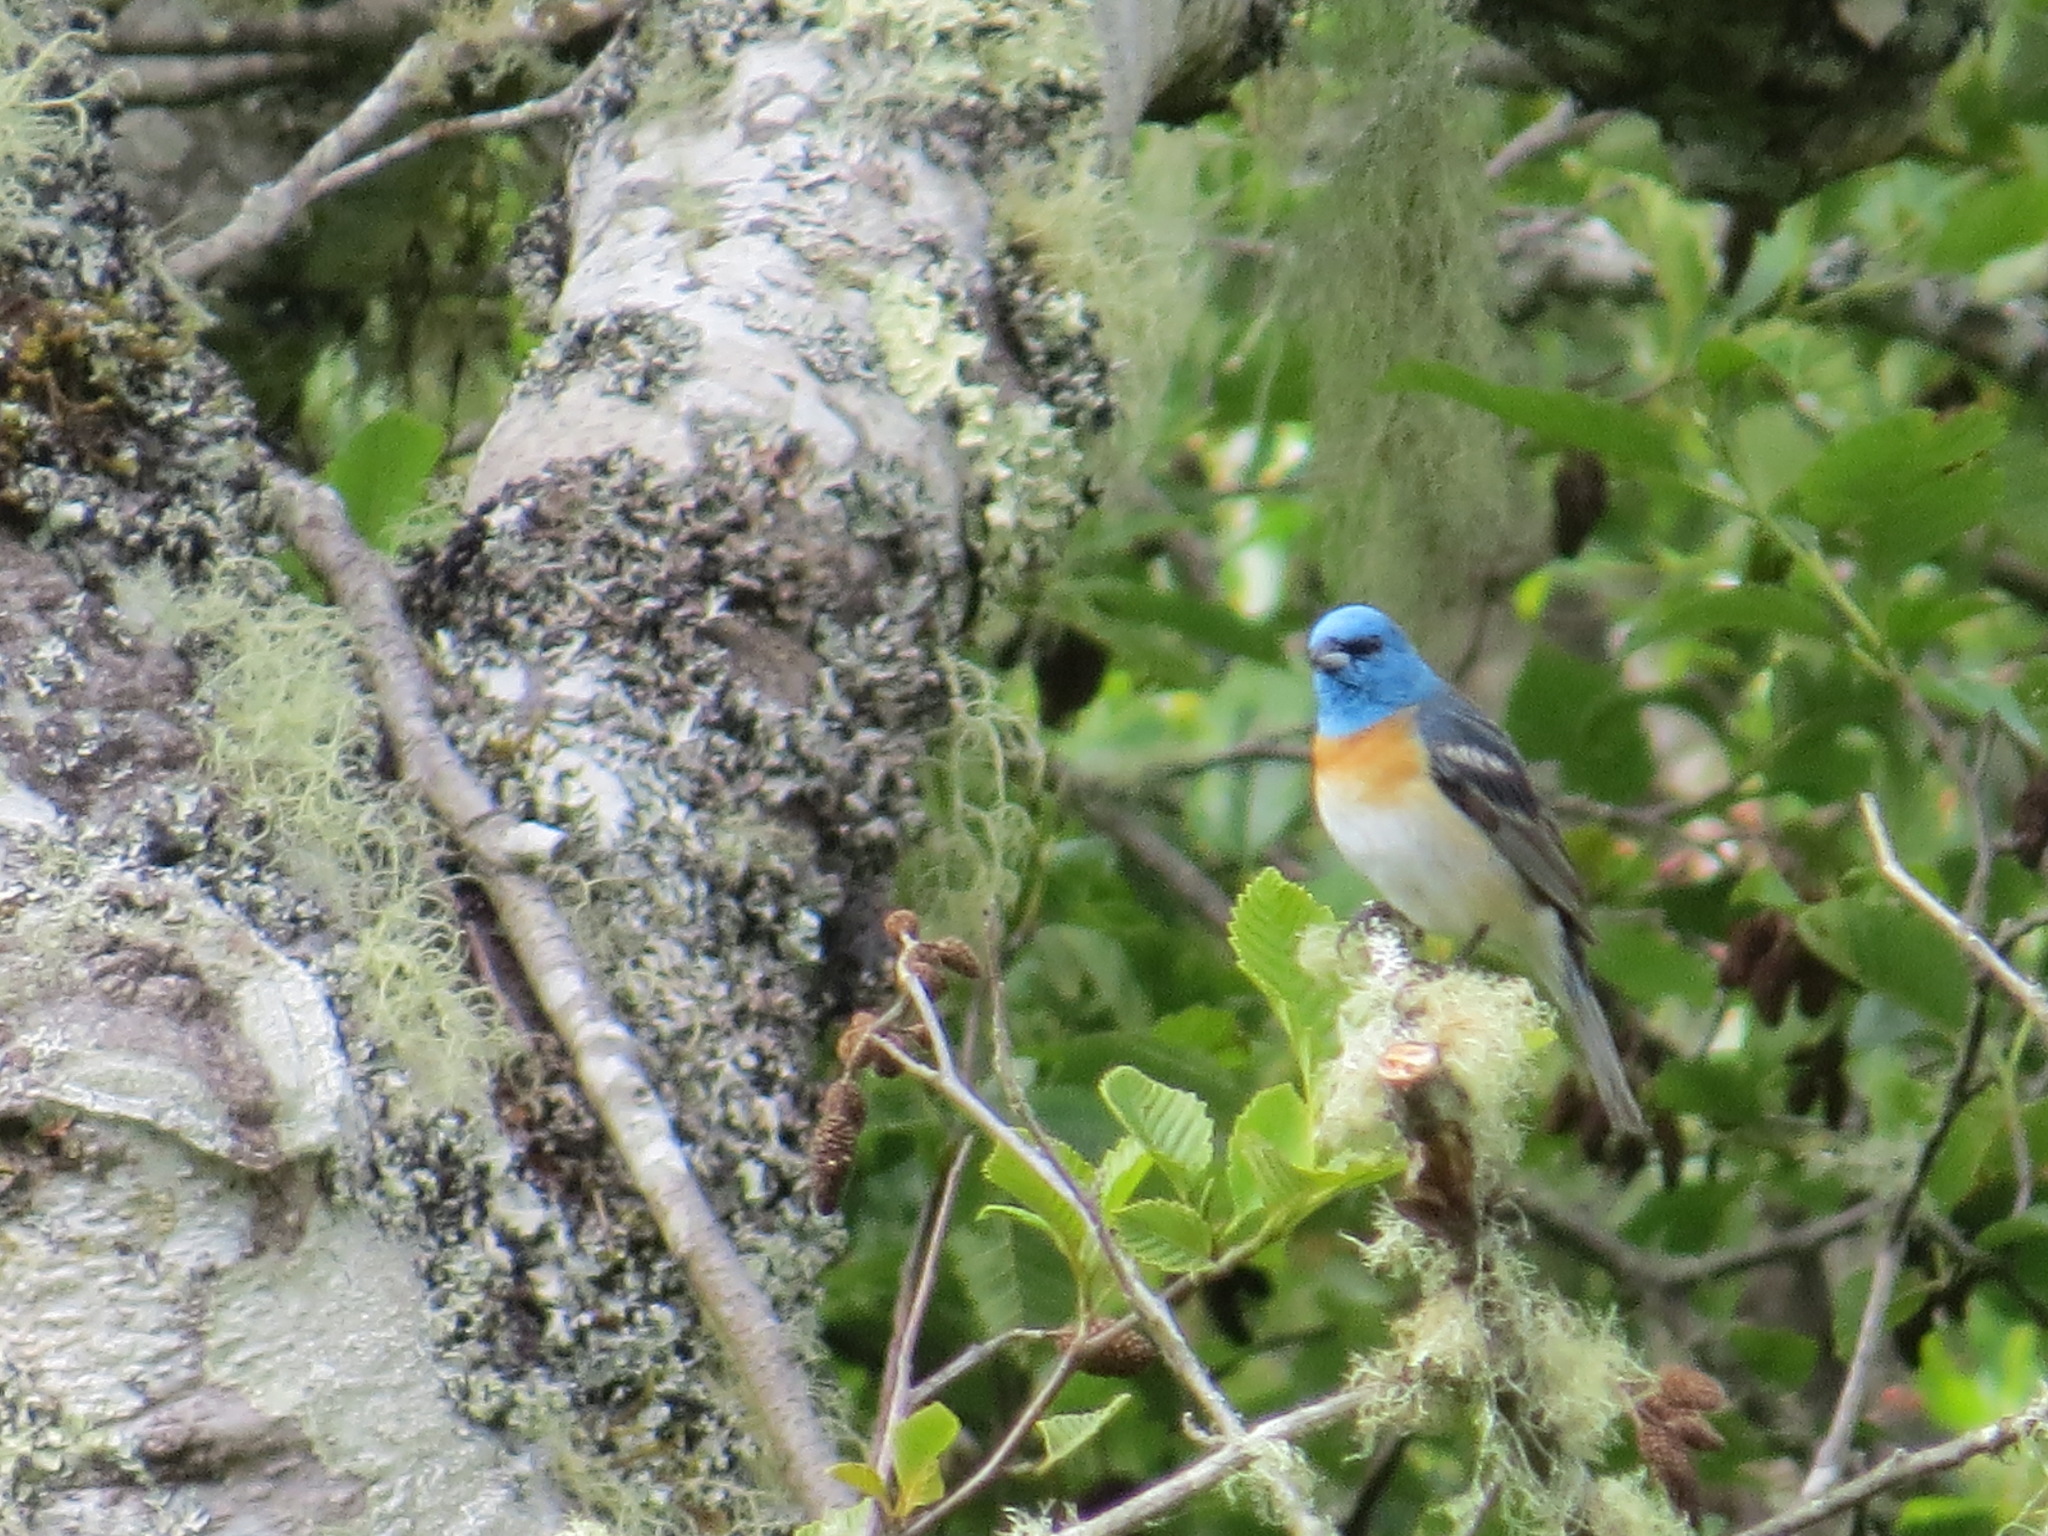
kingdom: Animalia
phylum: Chordata
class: Aves
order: Passeriformes
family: Cardinalidae
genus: Passerina
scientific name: Passerina amoena
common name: Lazuli bunting
